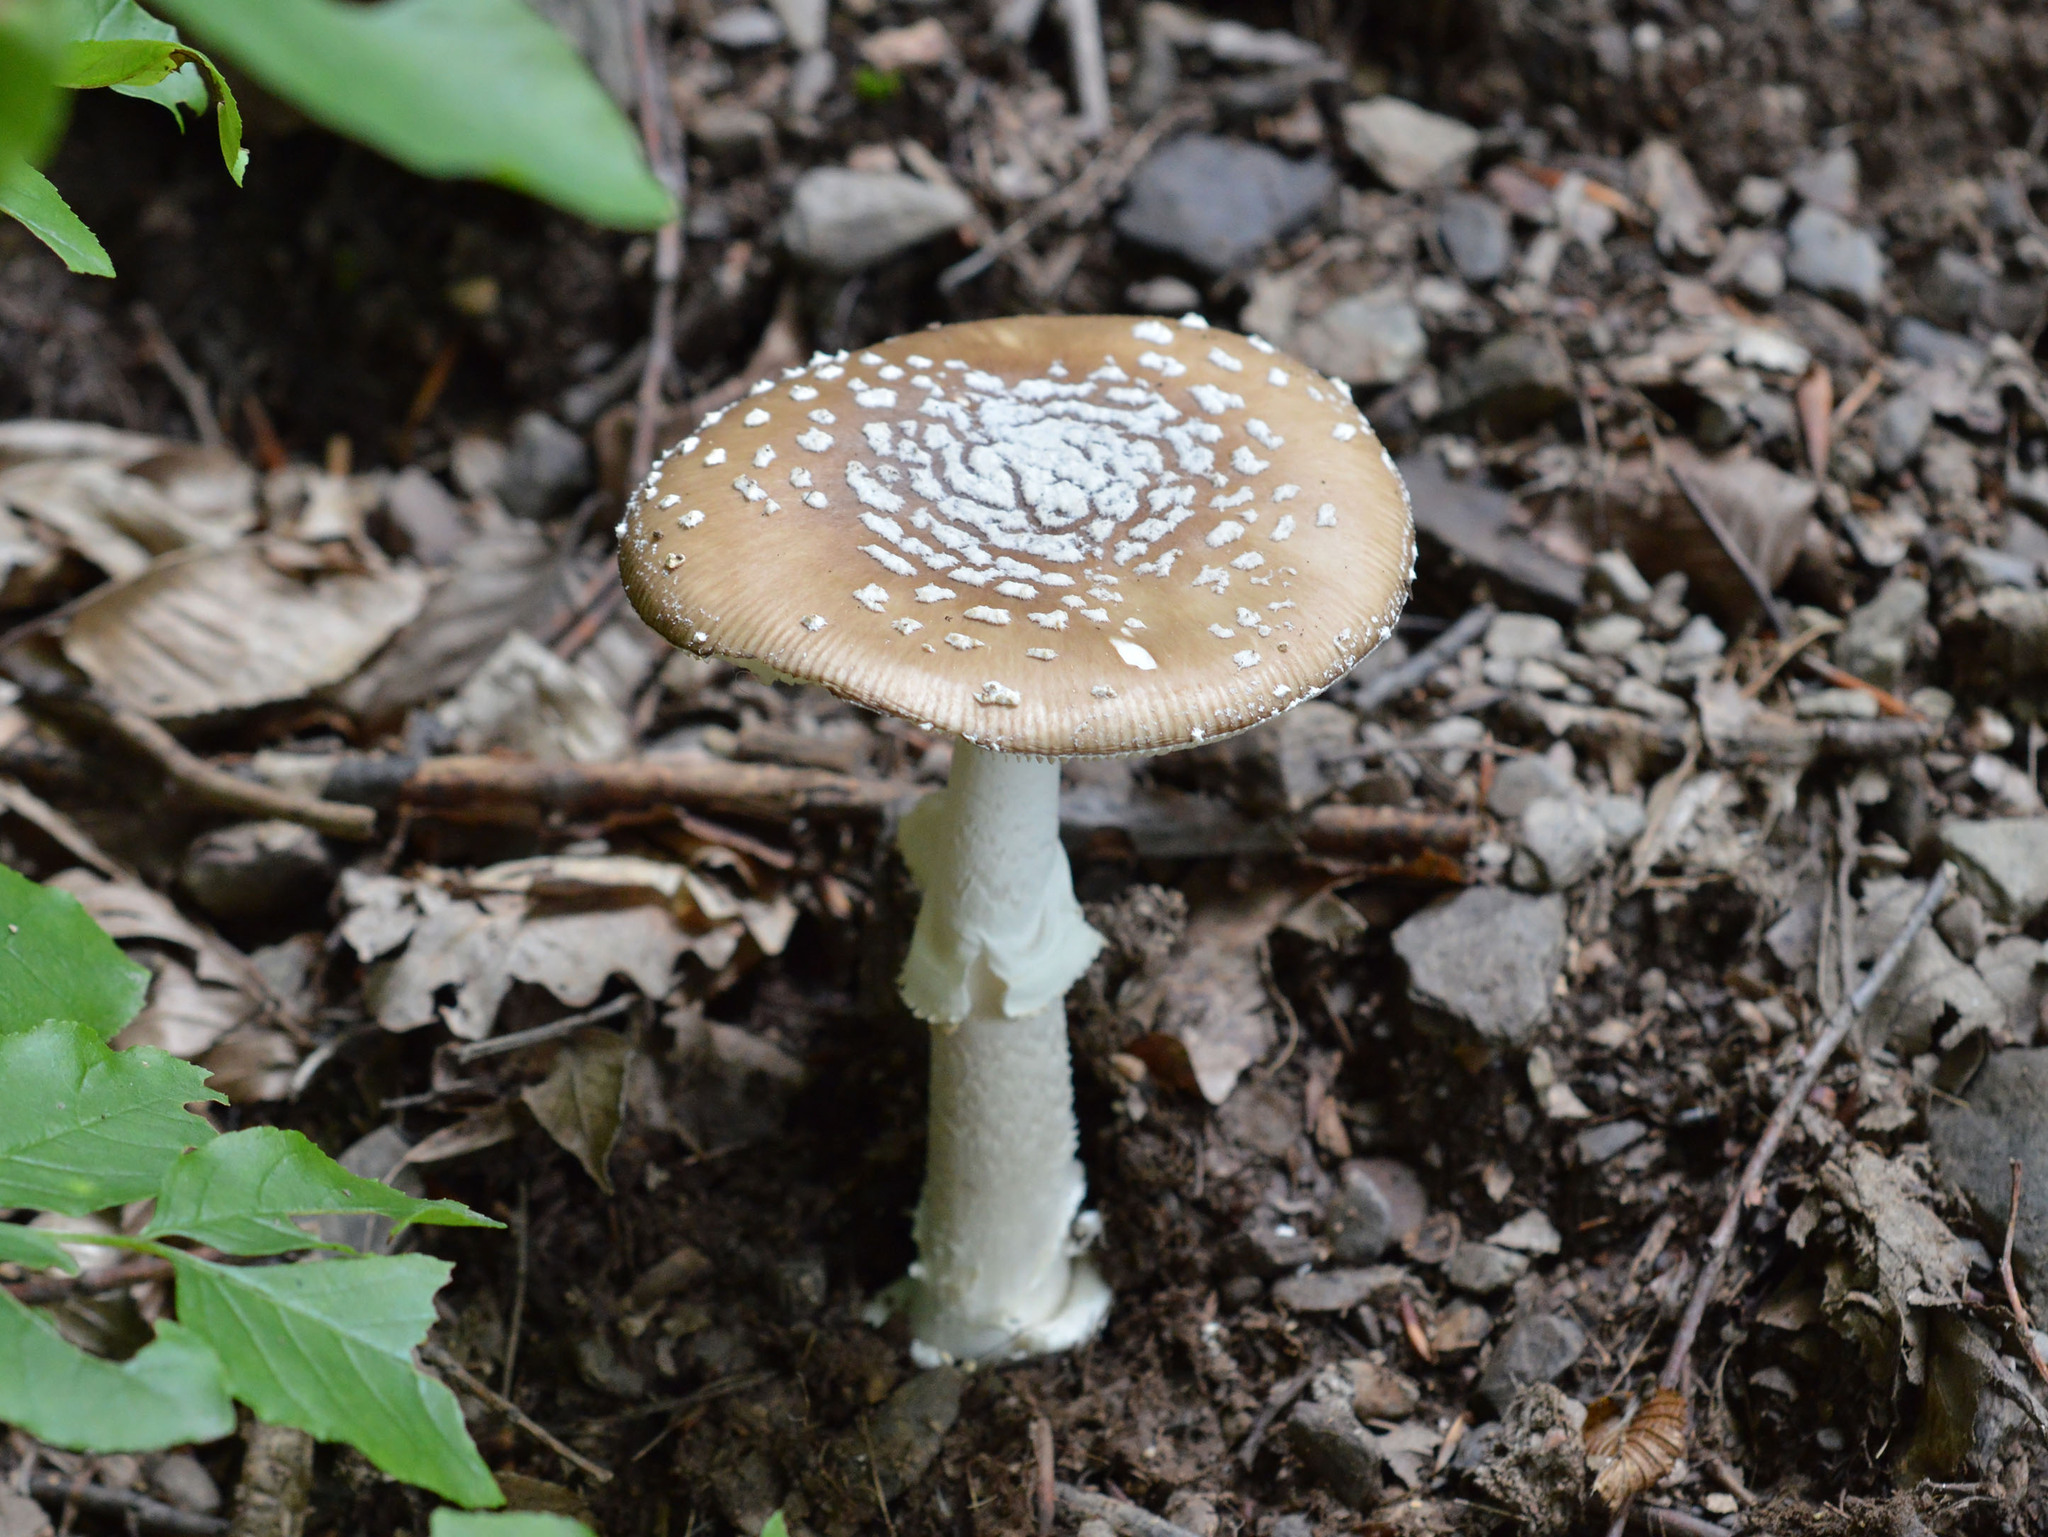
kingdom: Fungi
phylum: Basidiomycota
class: Agaricomycetes
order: Agaricales
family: Amanitaceae
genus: Amanita
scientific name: Amanita pantherina
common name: Panthercap
